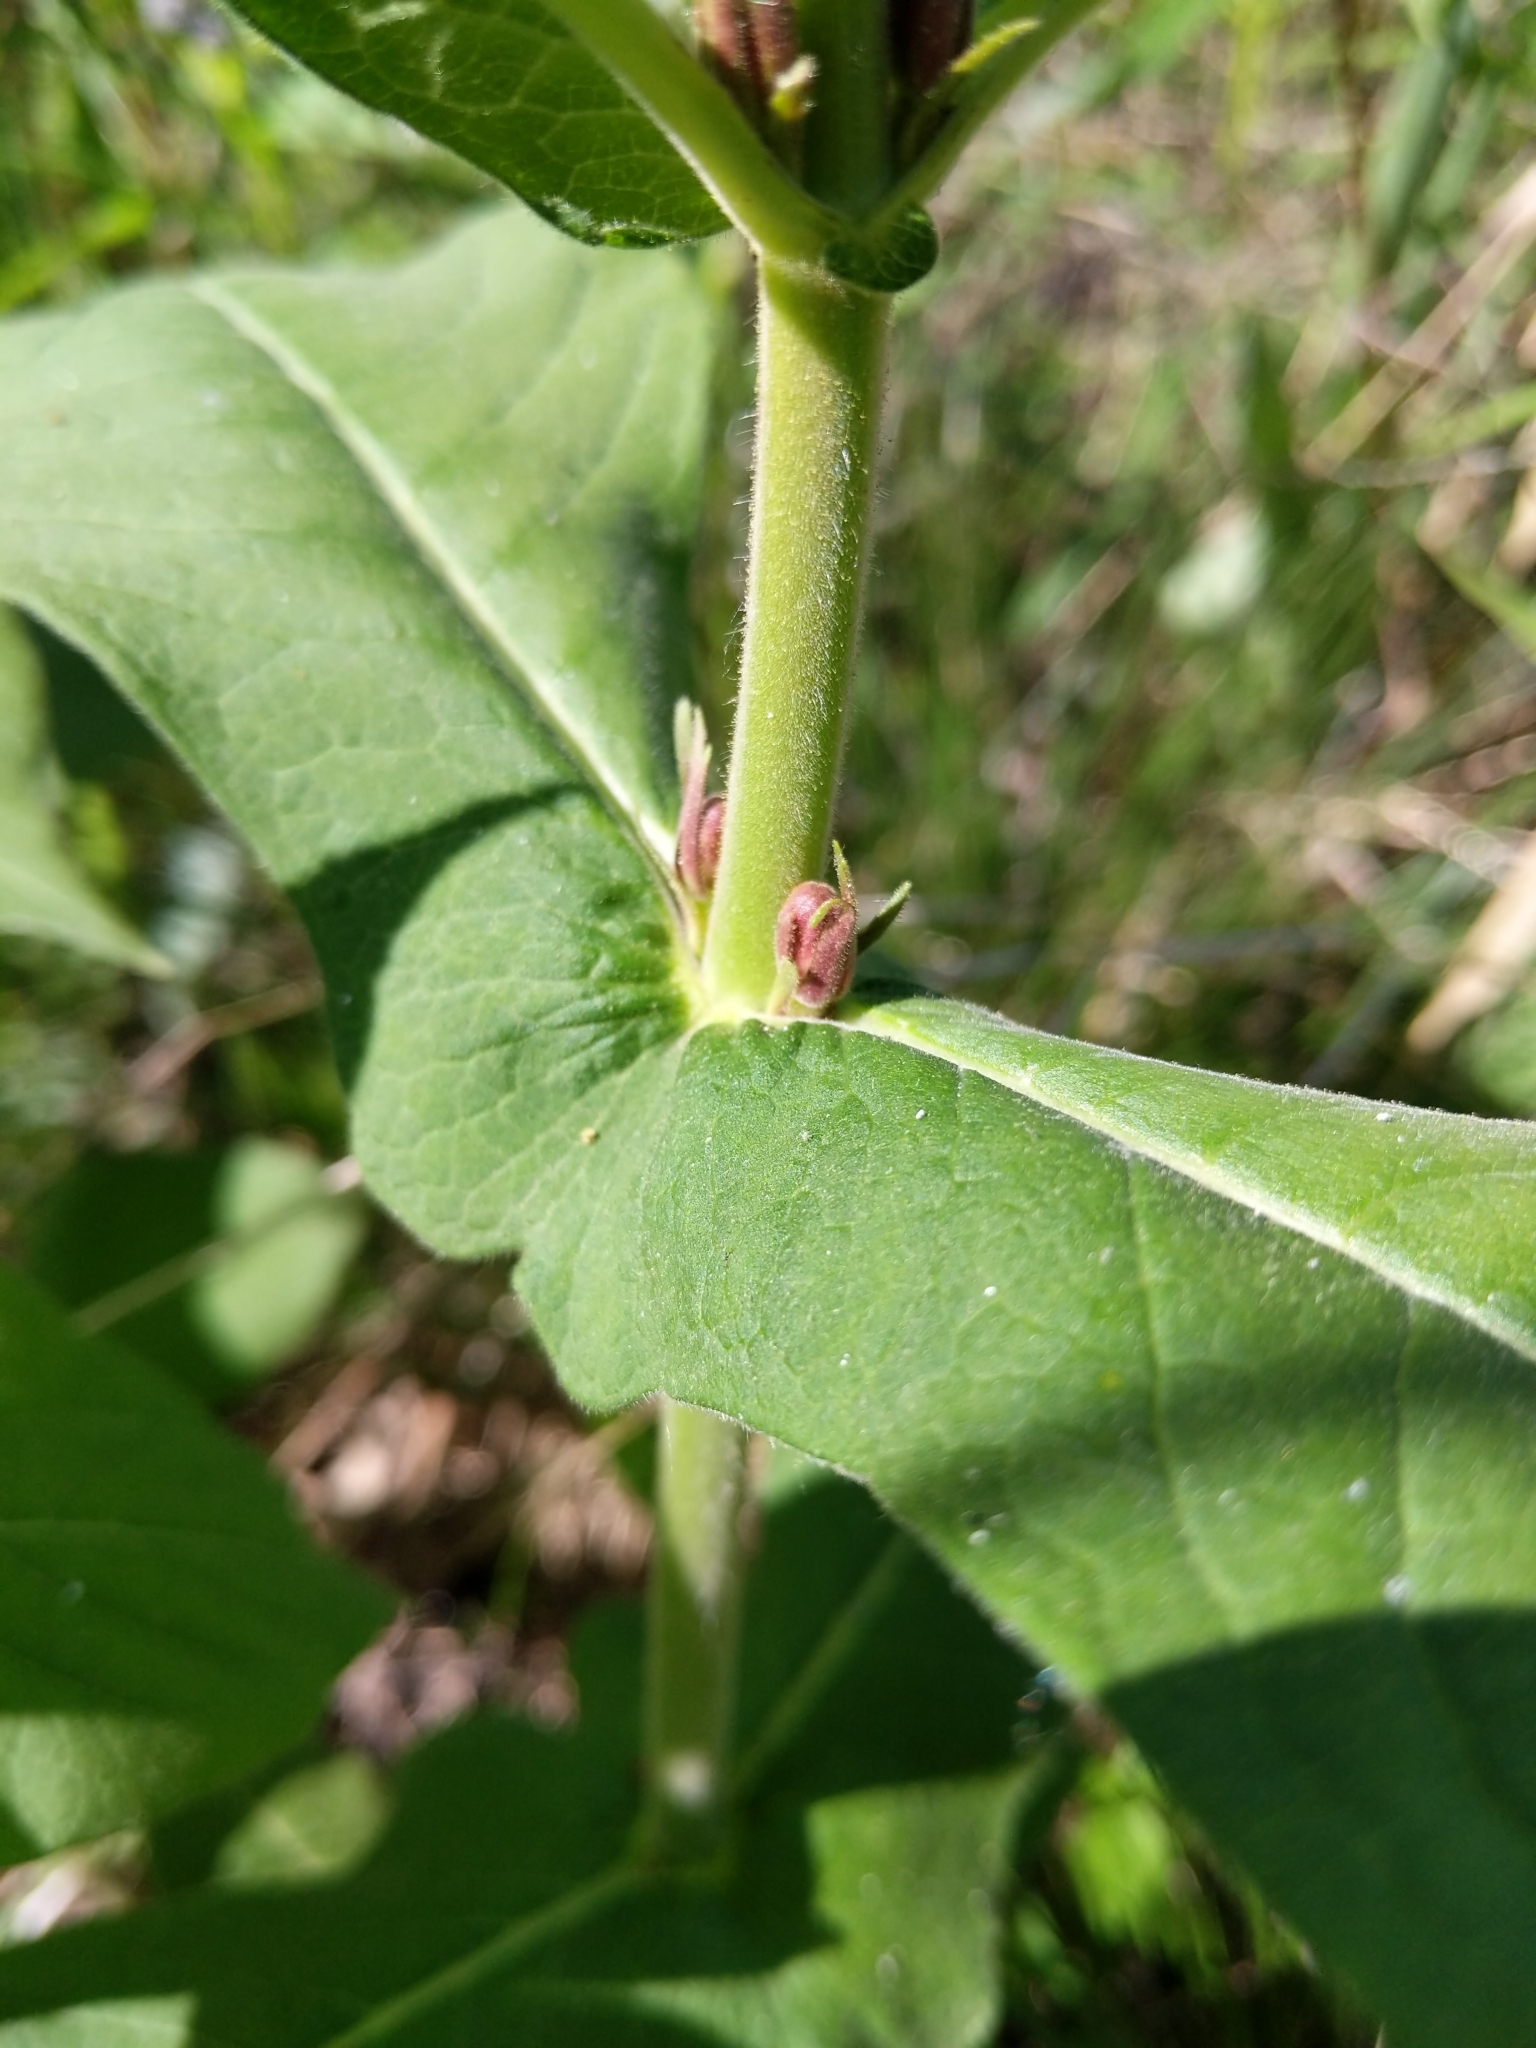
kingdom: Plantae
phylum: Tracheophyta
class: Magnoliopsida
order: Dipsacales
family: Caprifoliaceae
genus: Triosteum
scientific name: Triosteum perfoliatum
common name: Common horse-gentian
